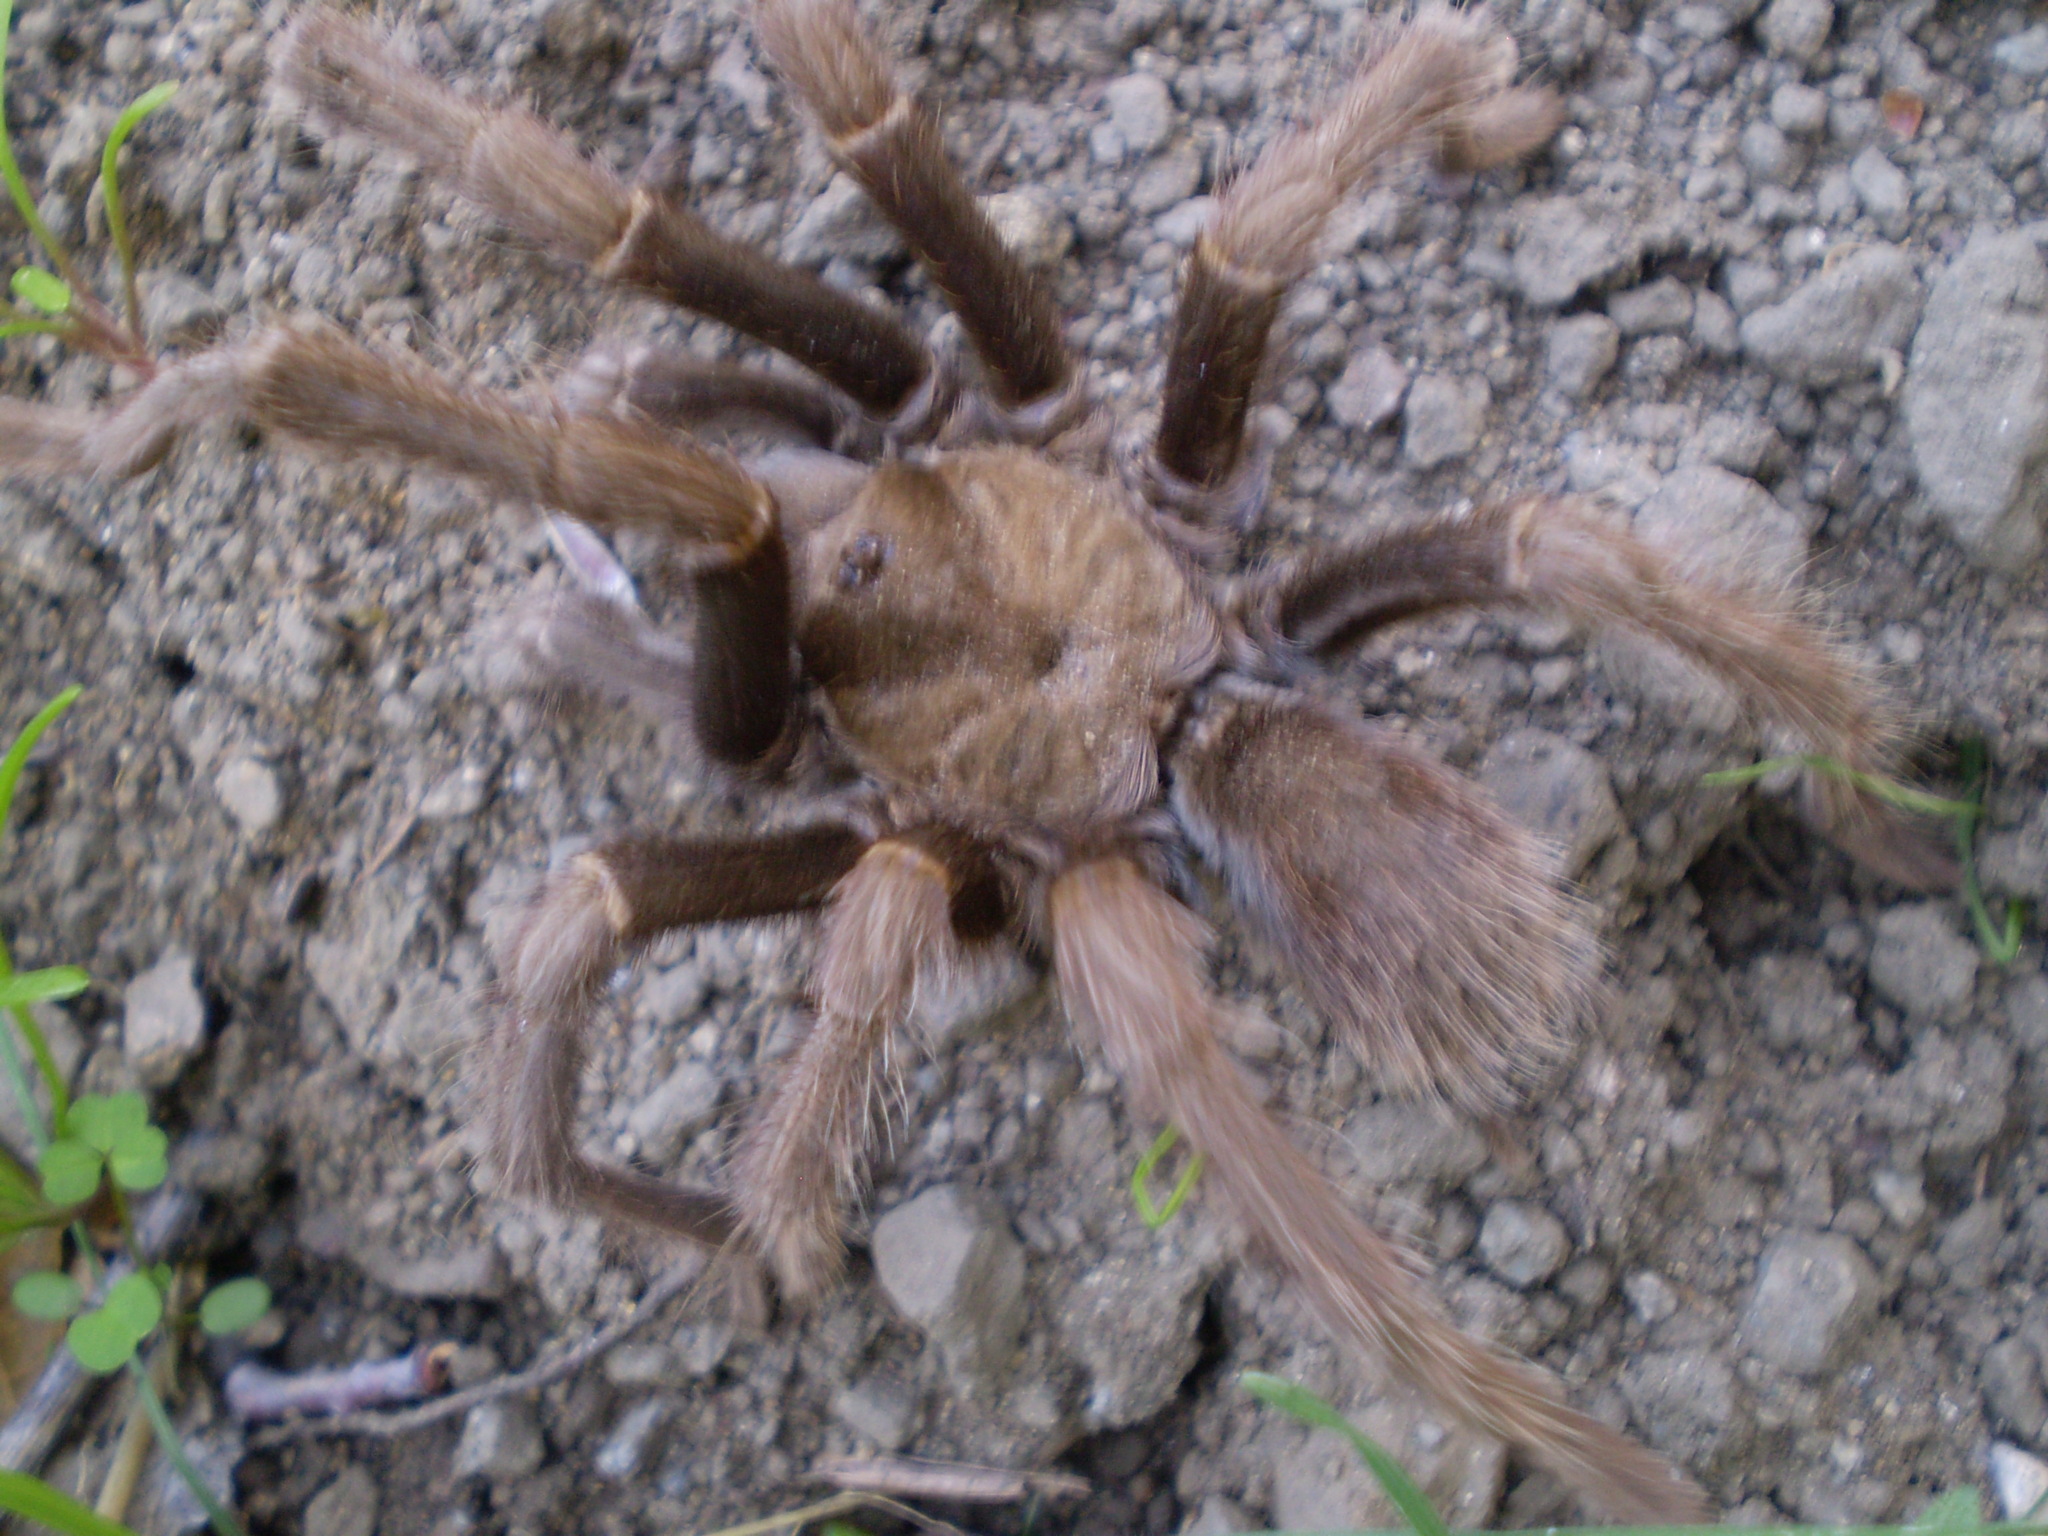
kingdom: Animalia
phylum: Arthropoda
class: Arachnida
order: Araneae
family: Theraphosidae
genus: Aphonopelma
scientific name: Aphonopelma iodius
